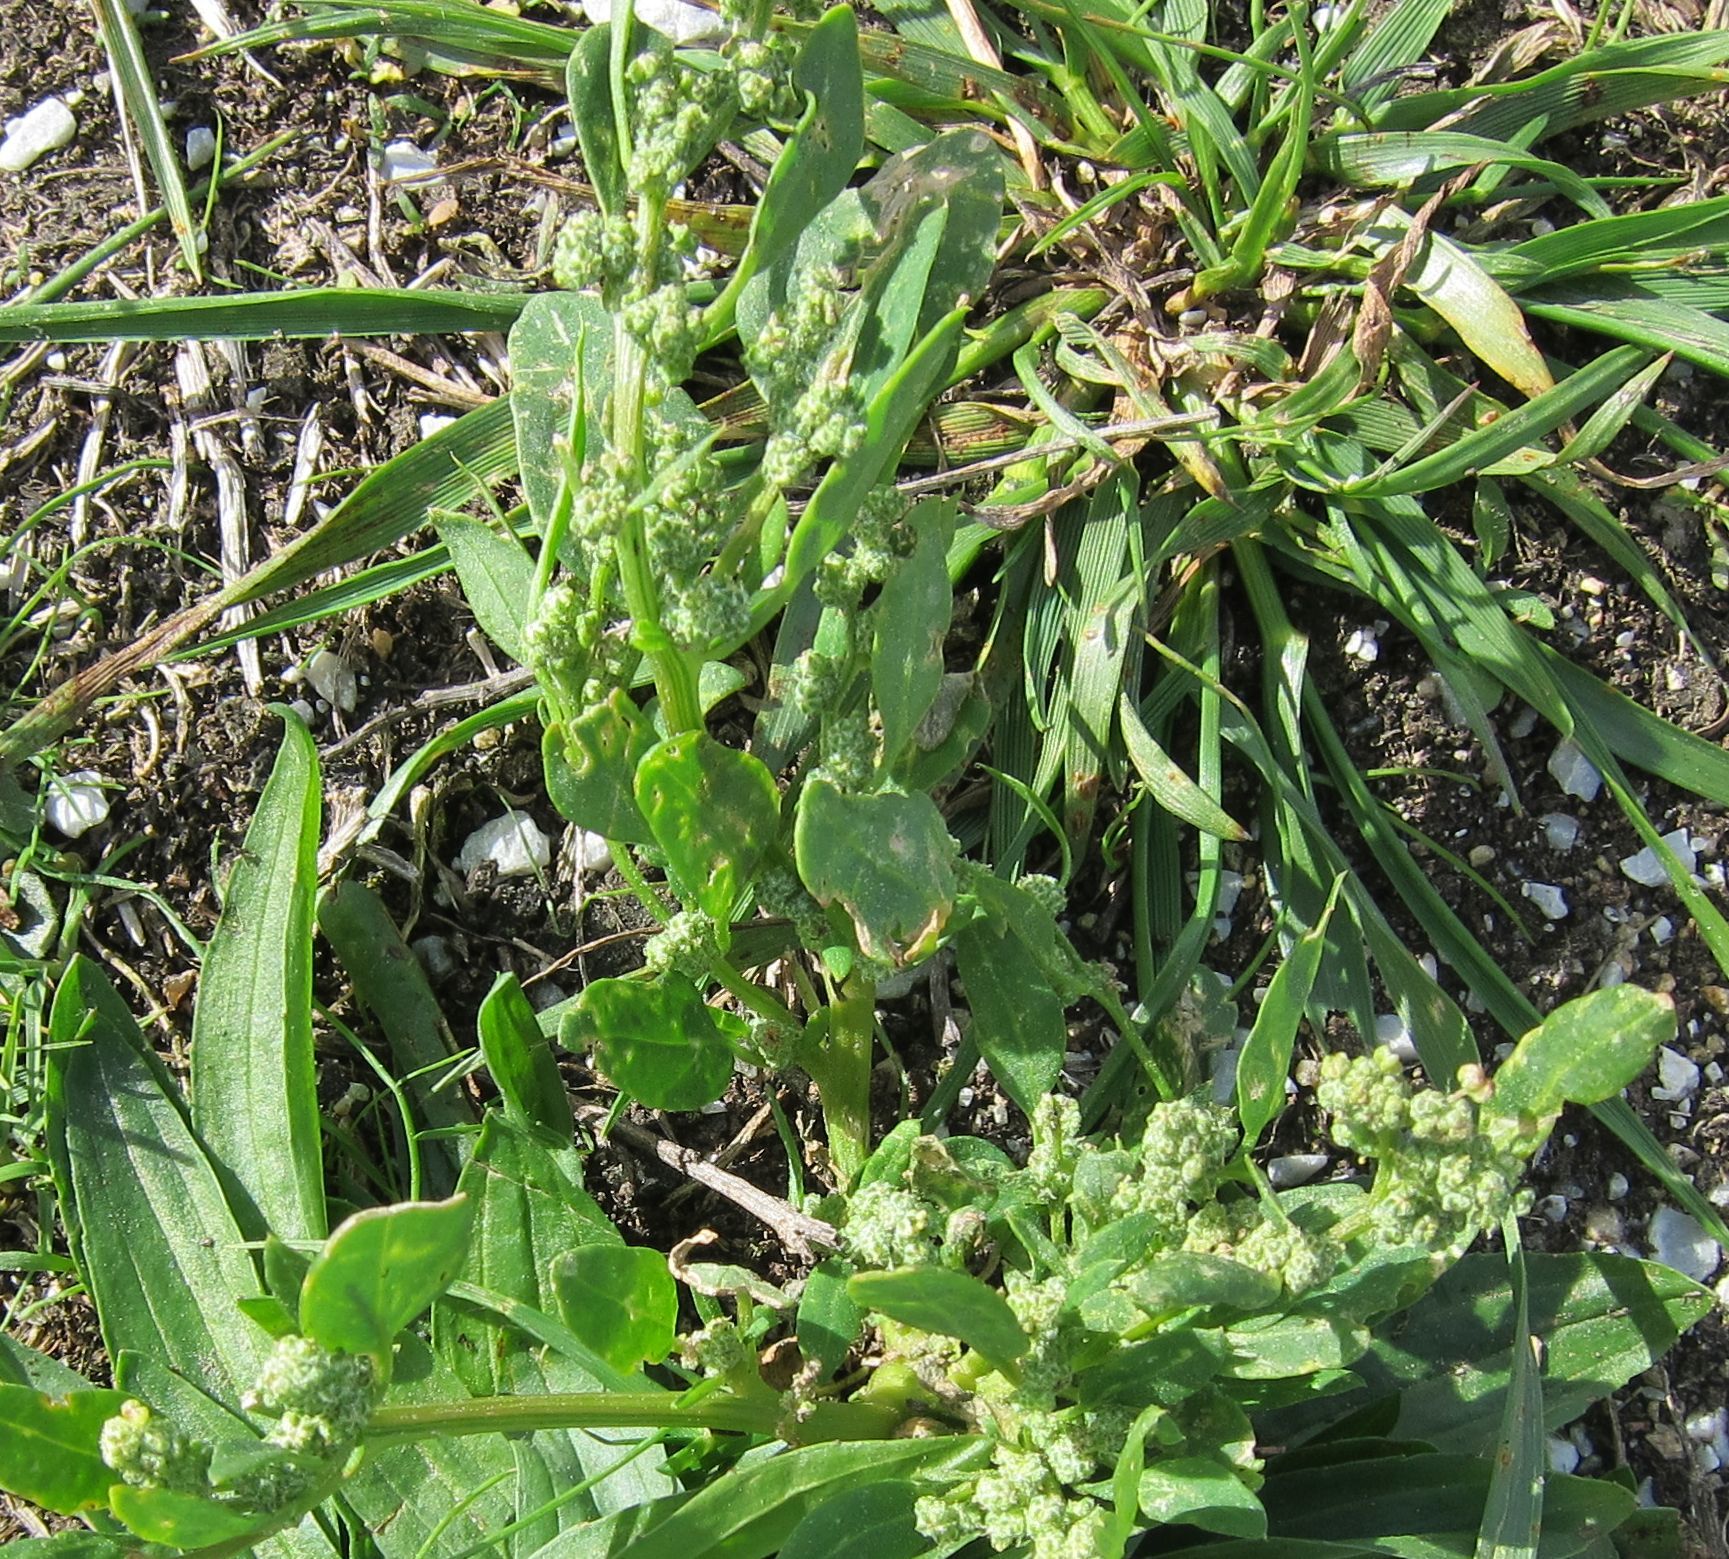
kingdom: Plantae
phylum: Tracheophyta
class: Magnoliopsida
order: Caryophyllales
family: Amaranthaceae
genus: Chenopodium
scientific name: Chenopodium album
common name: Fat-hen
